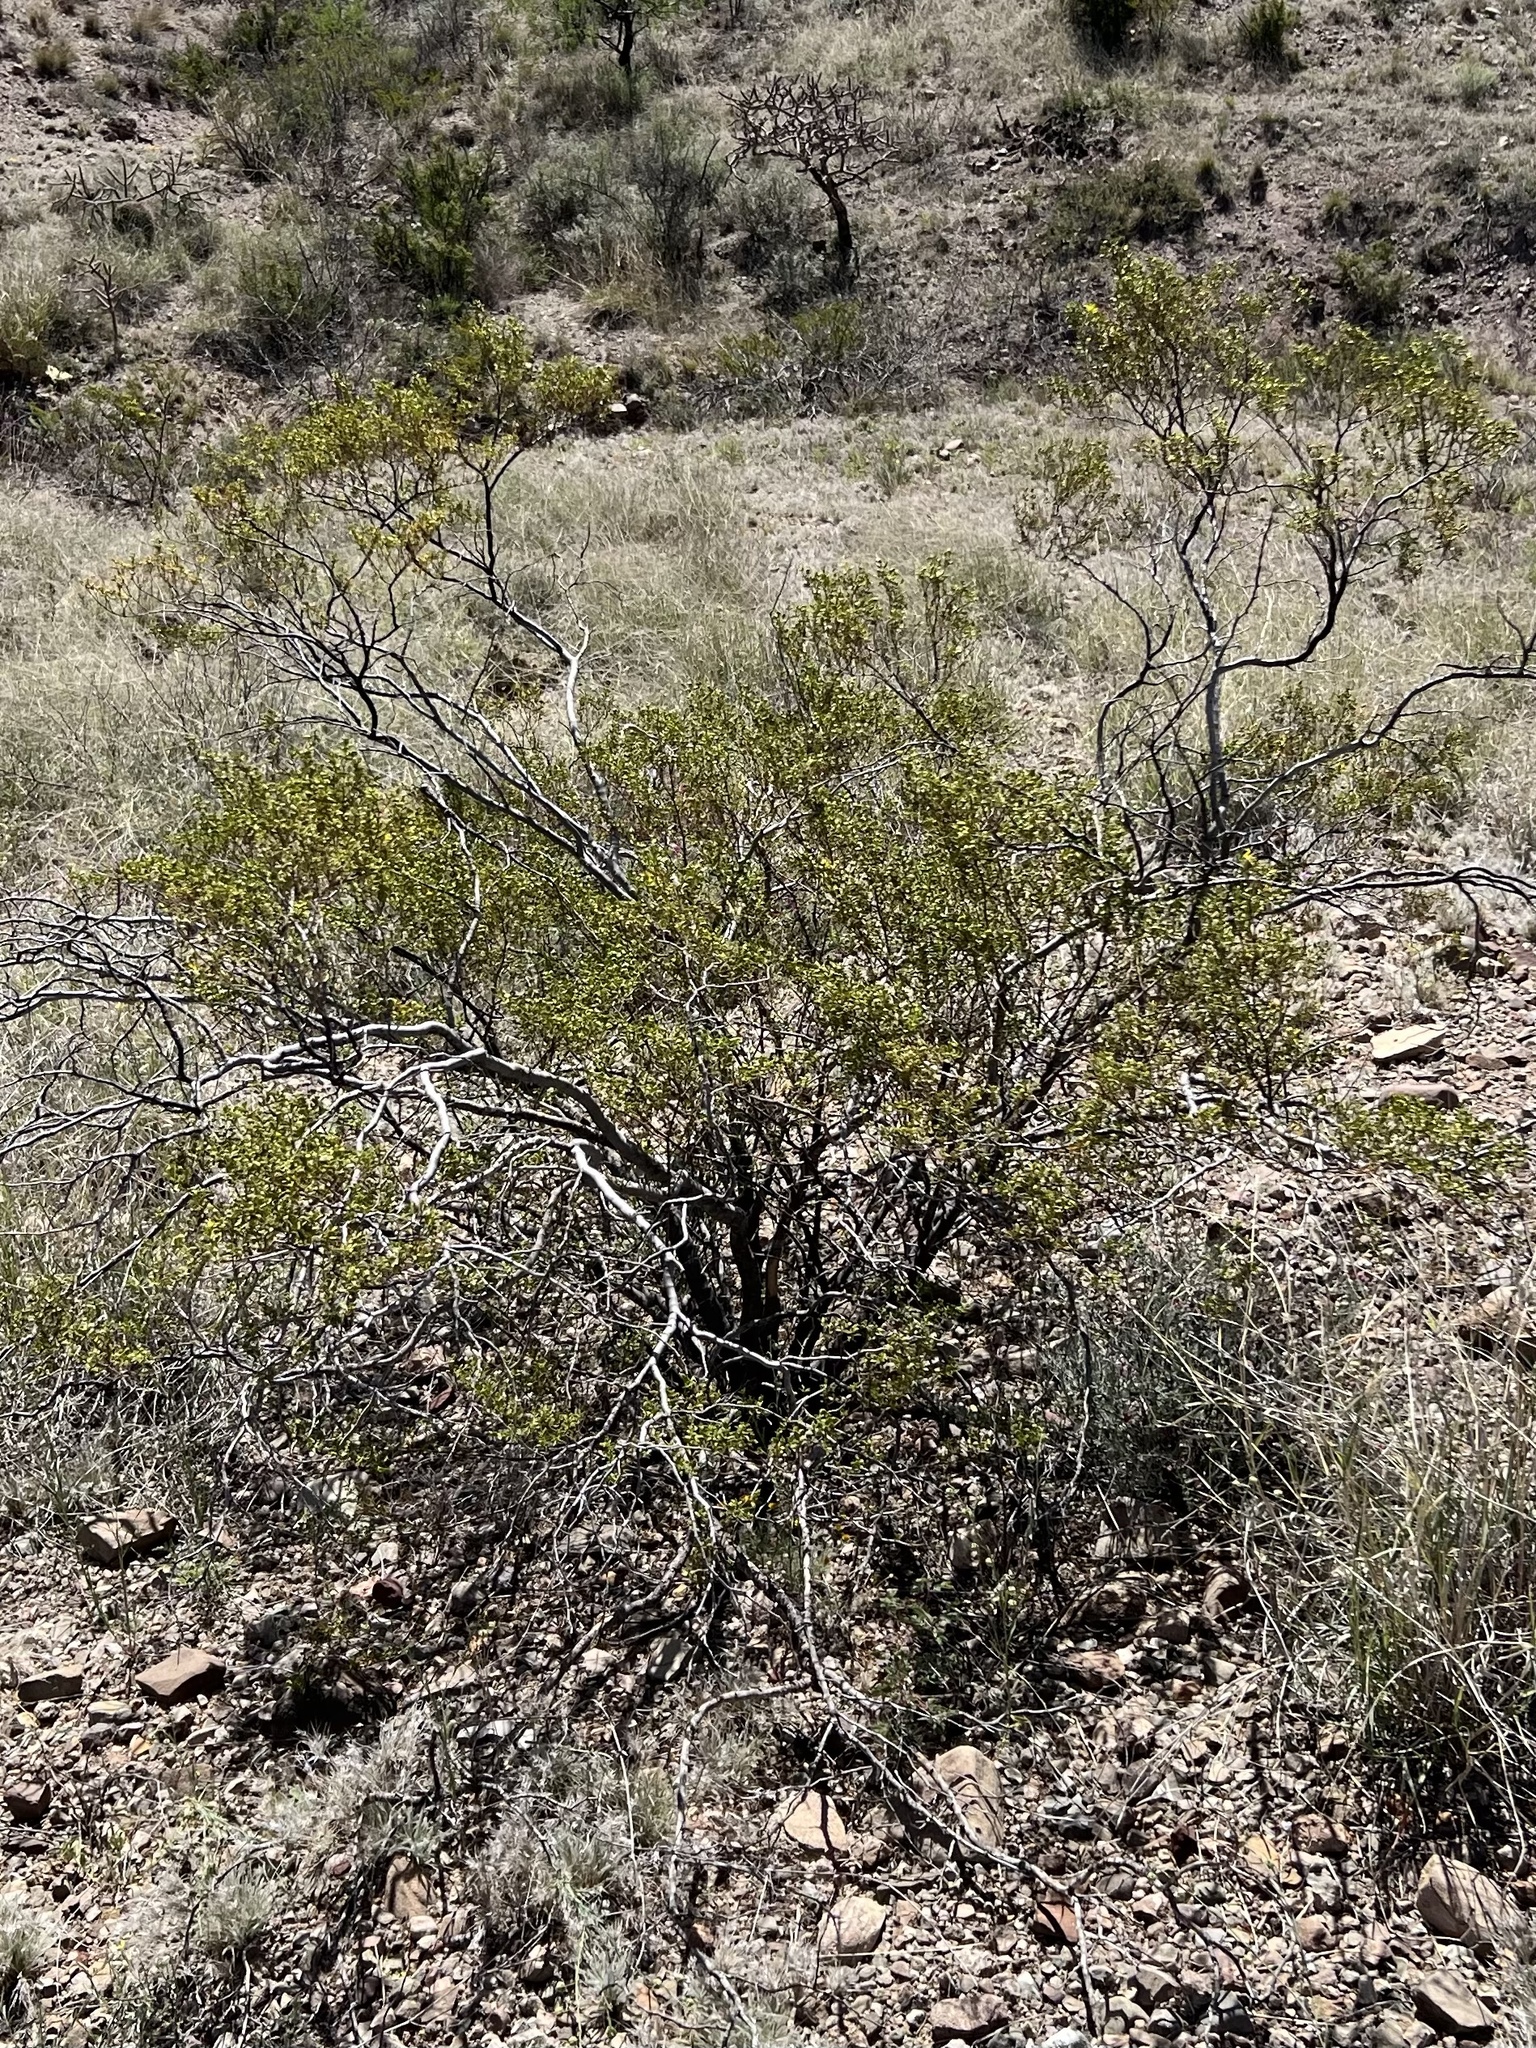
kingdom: Plantae
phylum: Tracheophyta
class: Magnoliopsida
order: Zygophyllales
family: Zygophyllaceae
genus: Larrea
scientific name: Larrea tridentata
